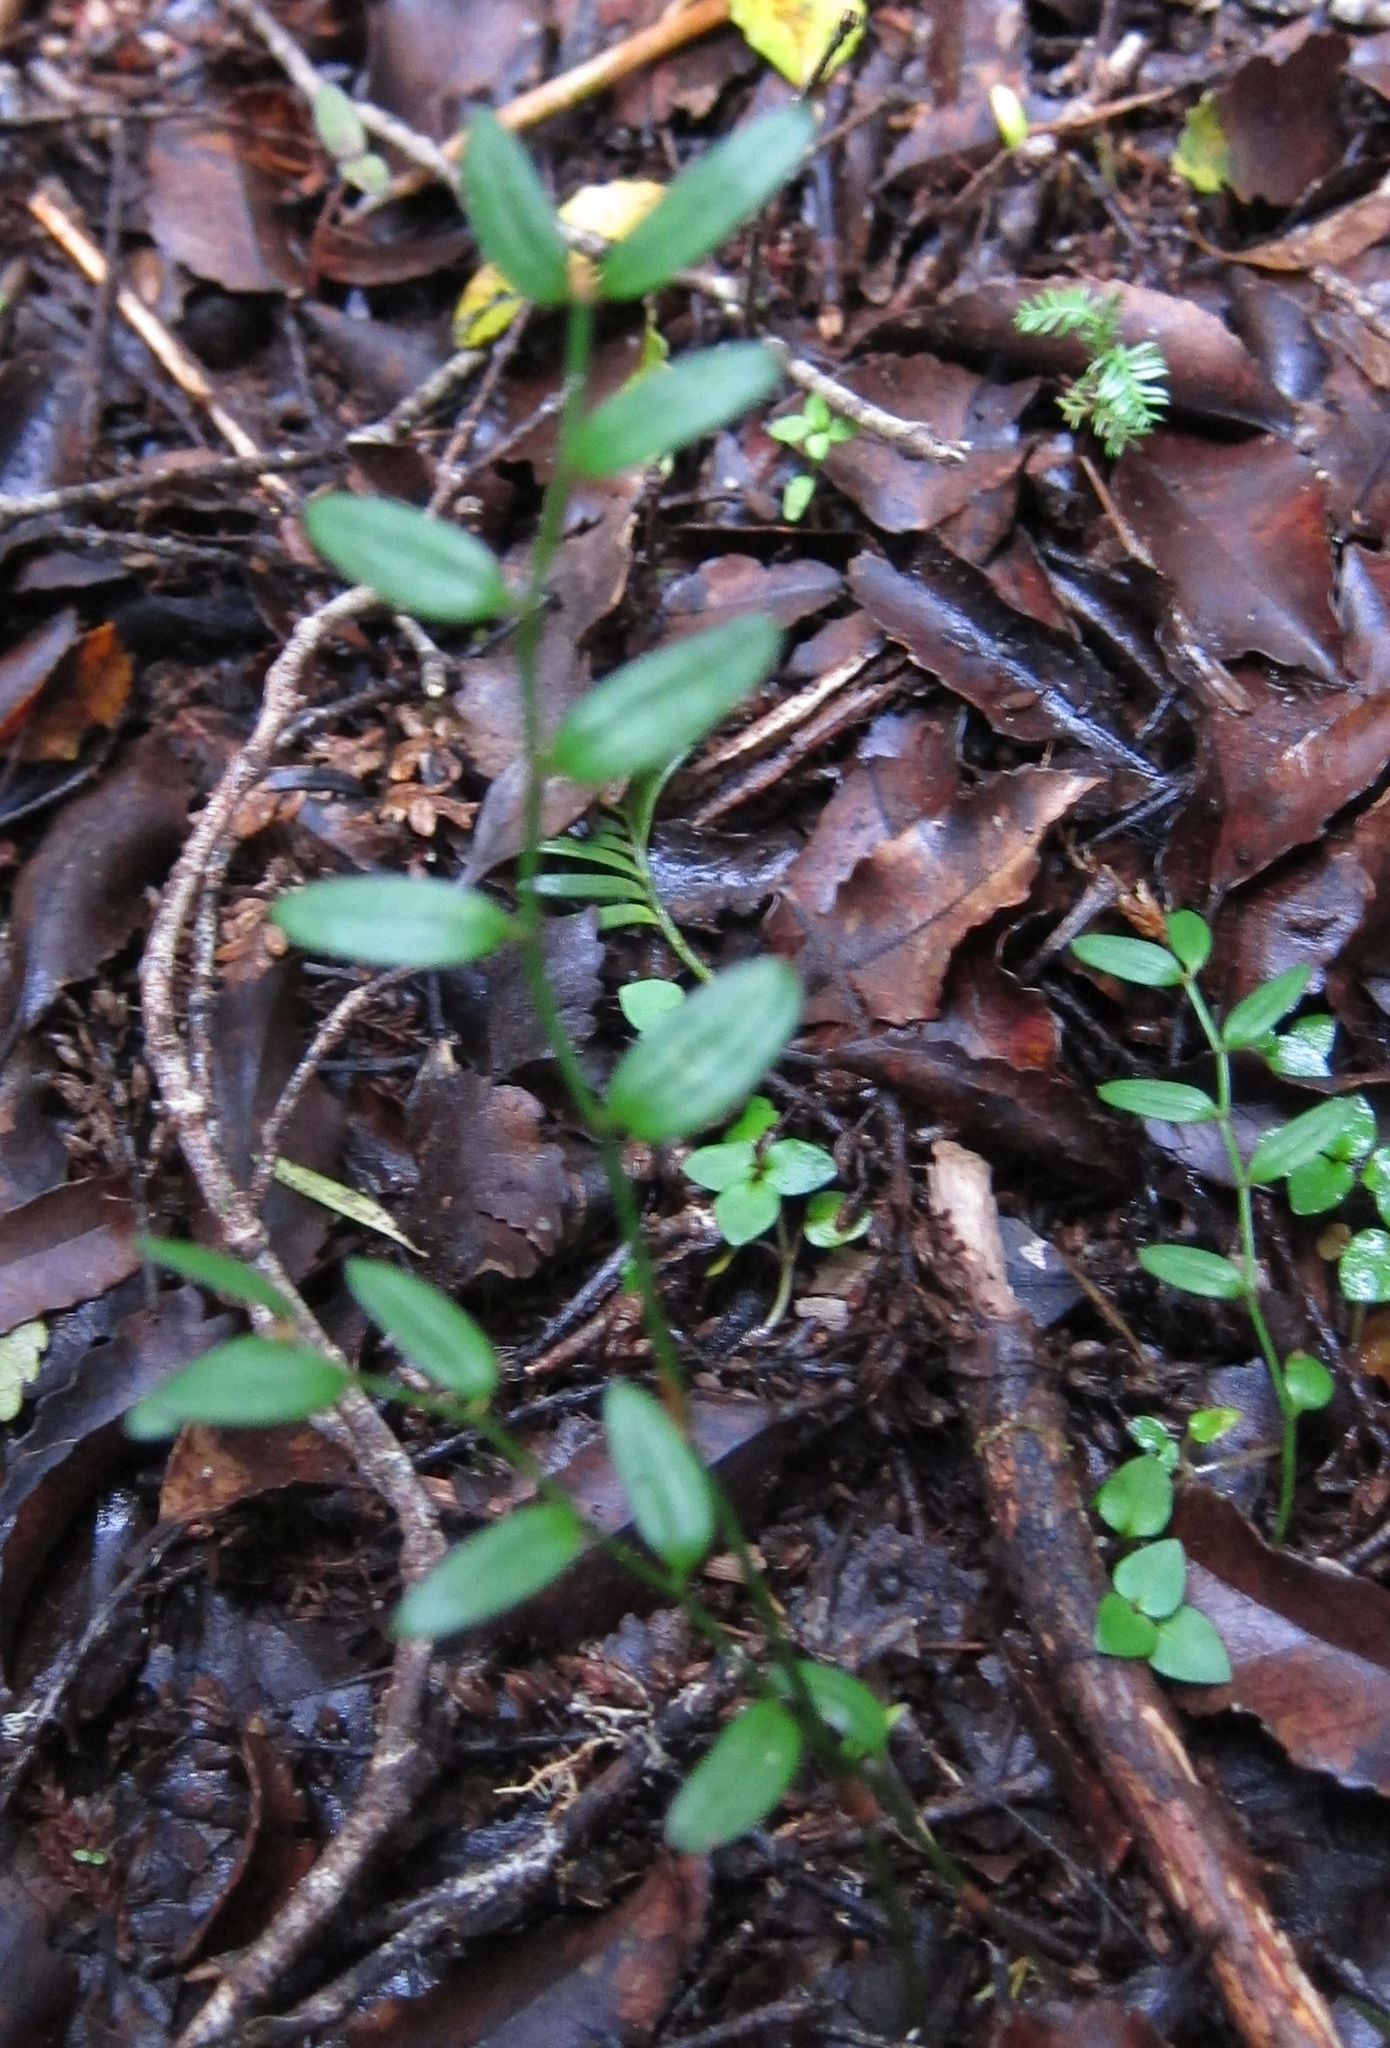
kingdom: Plantae
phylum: Tracheophyta
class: Liliopsida
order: Liliales
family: Alstroemeriaceae
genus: Luzuriaga
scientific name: Luzuriaga parviflora
